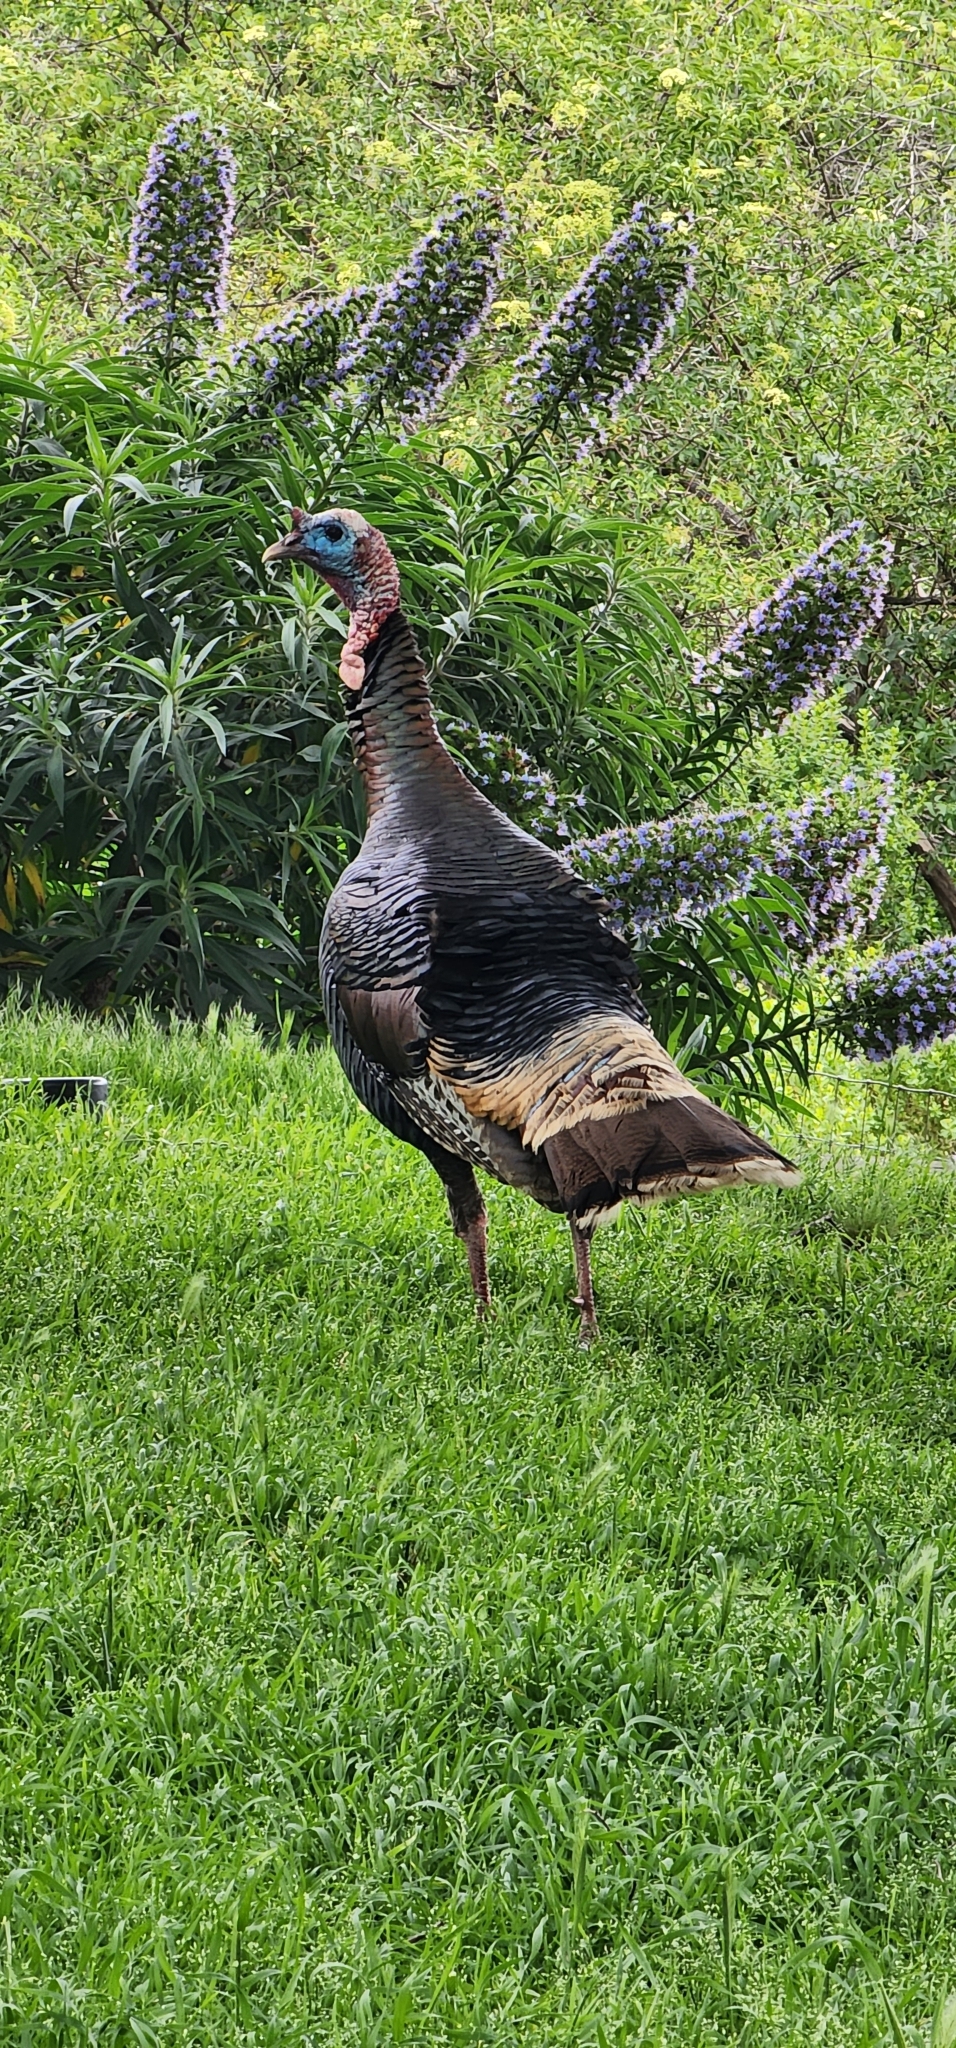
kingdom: Animalia
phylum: Chordata
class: Aves
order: Galliformes
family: Phasianidae
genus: Meleagris
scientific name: Meleagris gallopavo
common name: Wild turkey
